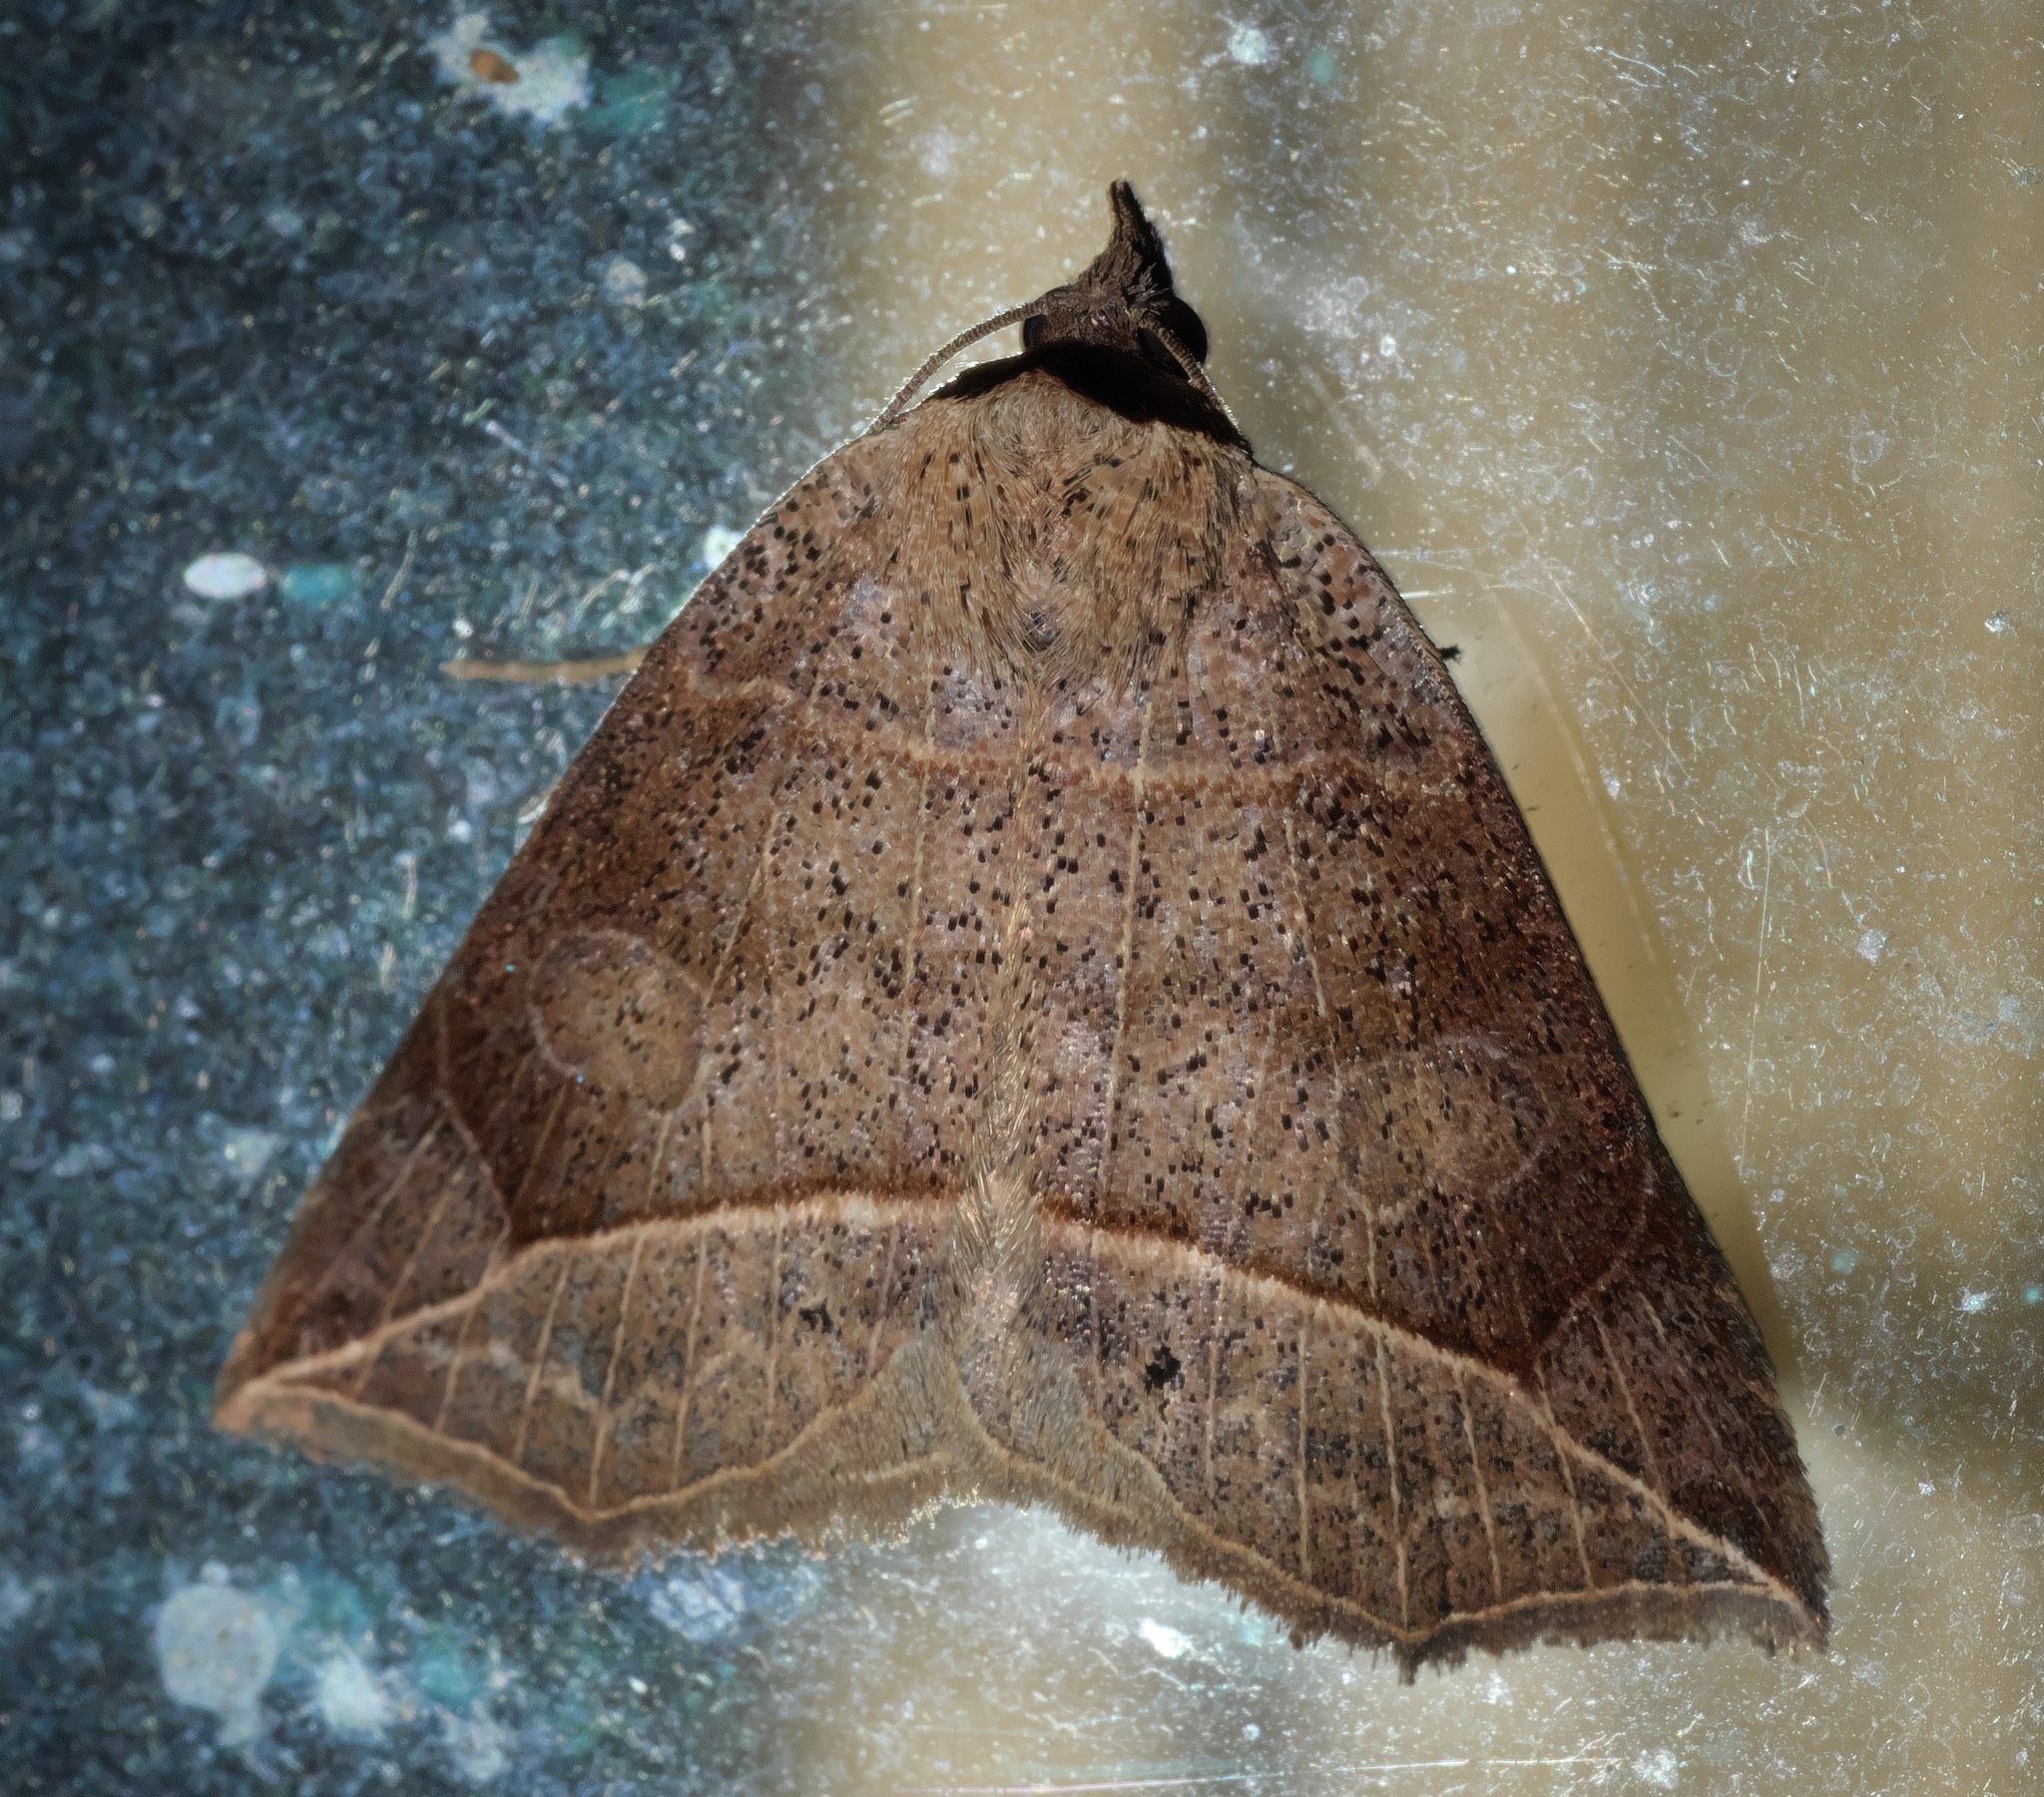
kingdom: Animalia
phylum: Arthropoda
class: Insecta
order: Lepidoptera
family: Erebidae
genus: Isogona
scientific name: Isogona tenuis
